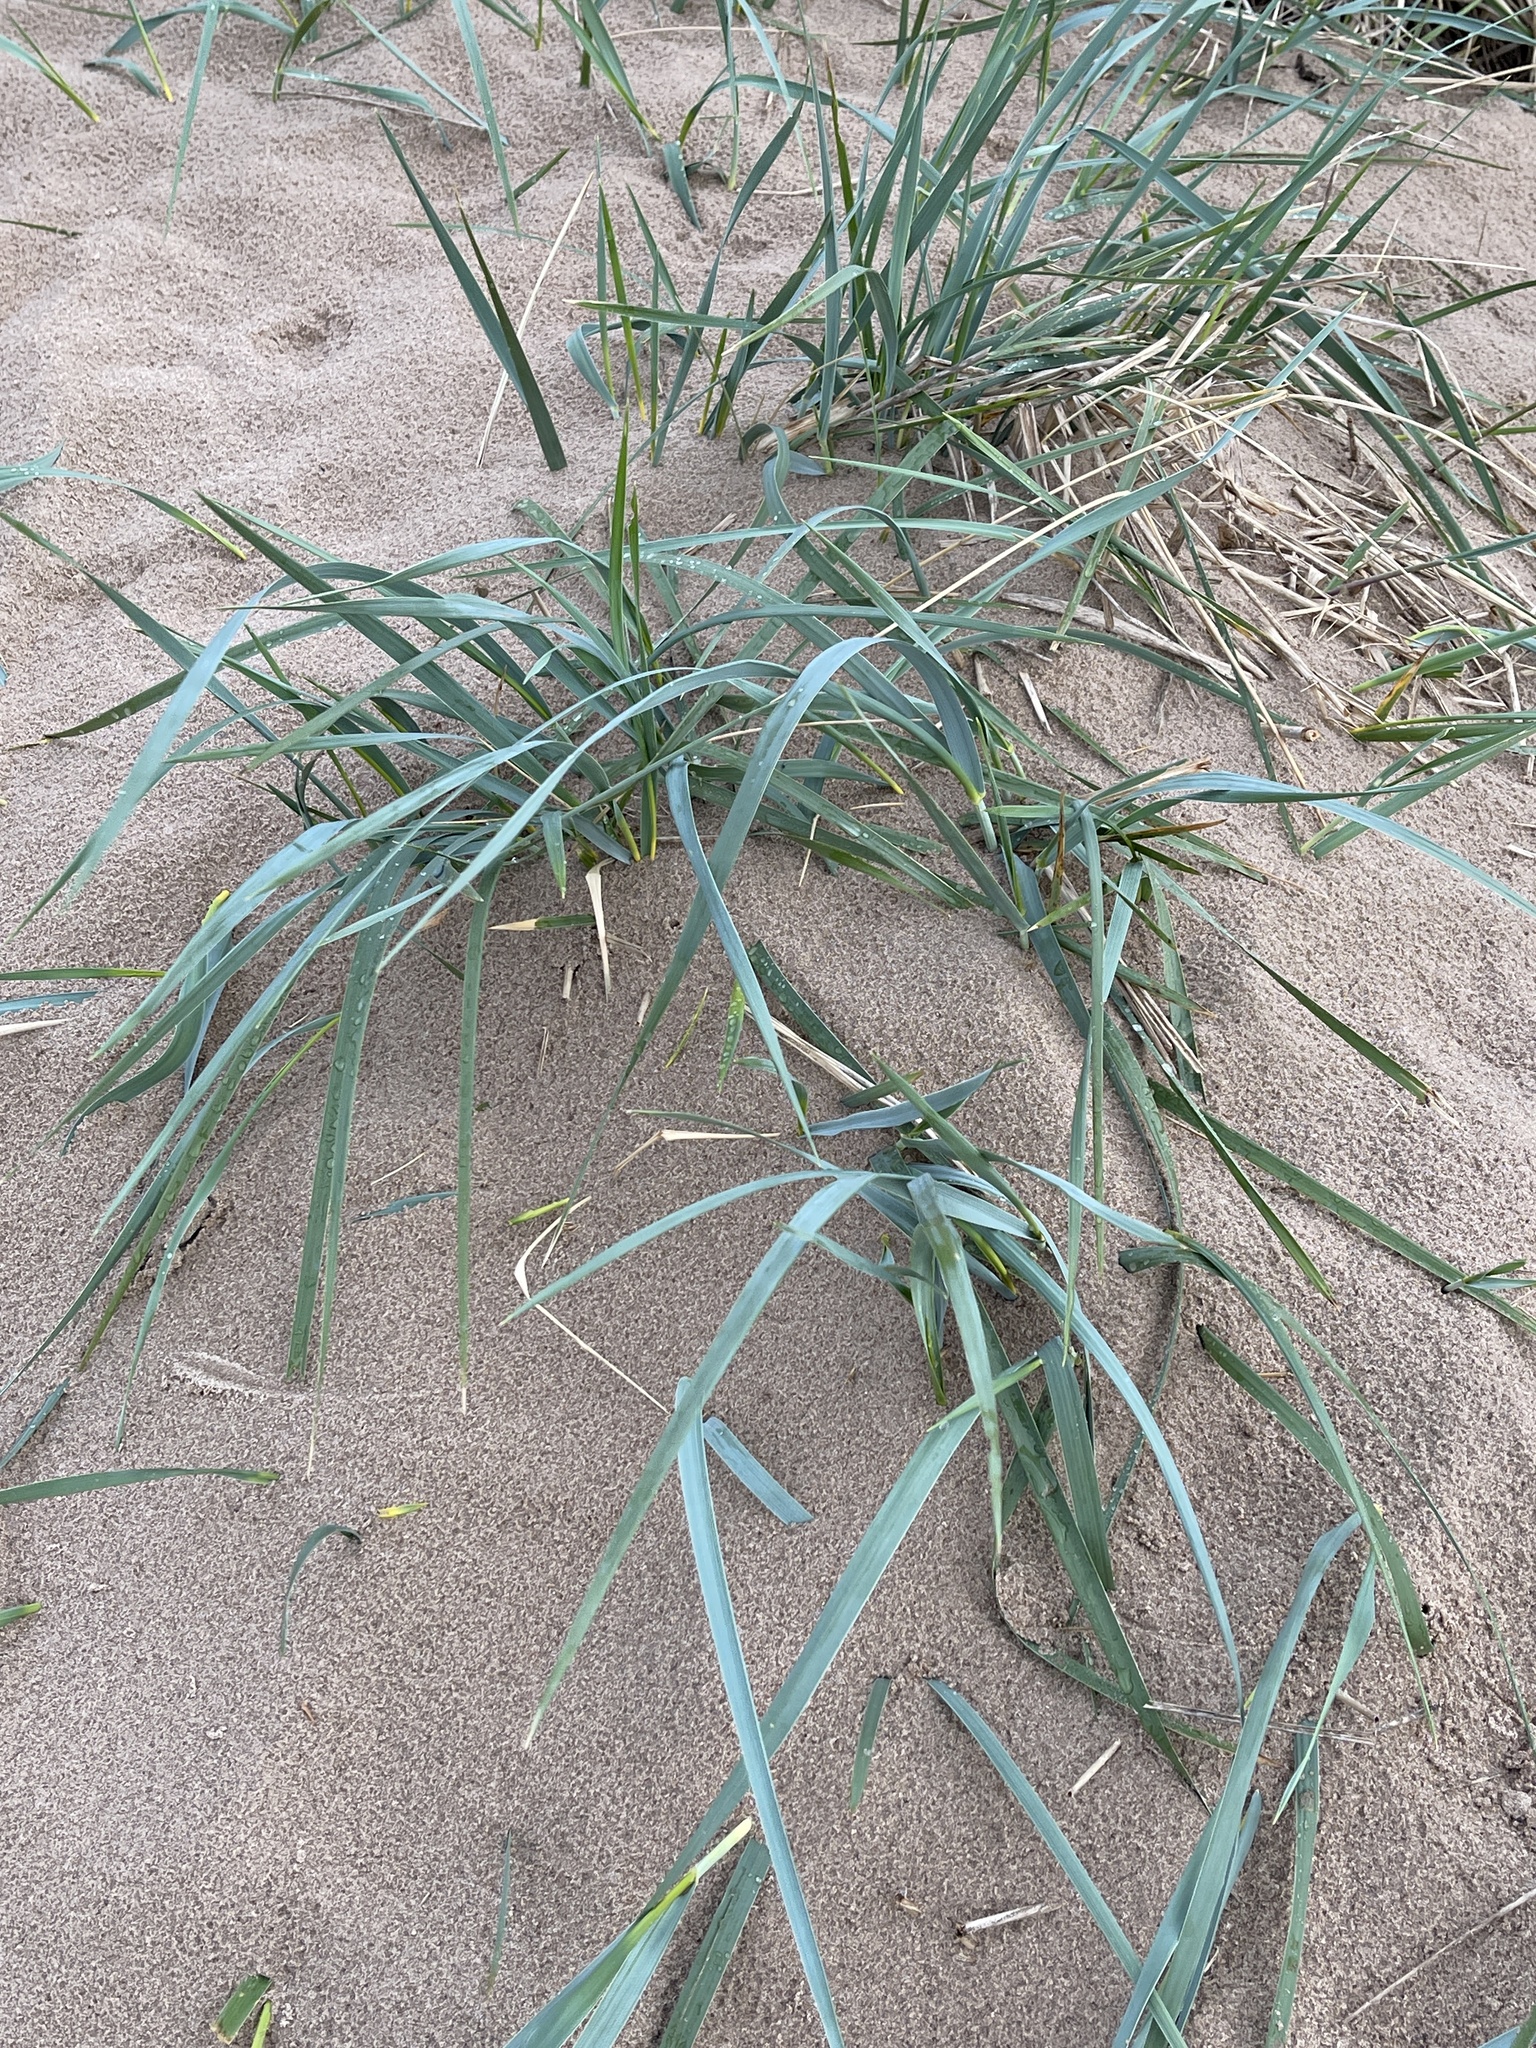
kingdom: Plantae
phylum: Tracheophyta
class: Liliopsida
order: Poales
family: Poaceae
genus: Leymus
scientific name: Leymus arenarius
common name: Lyme-grass
